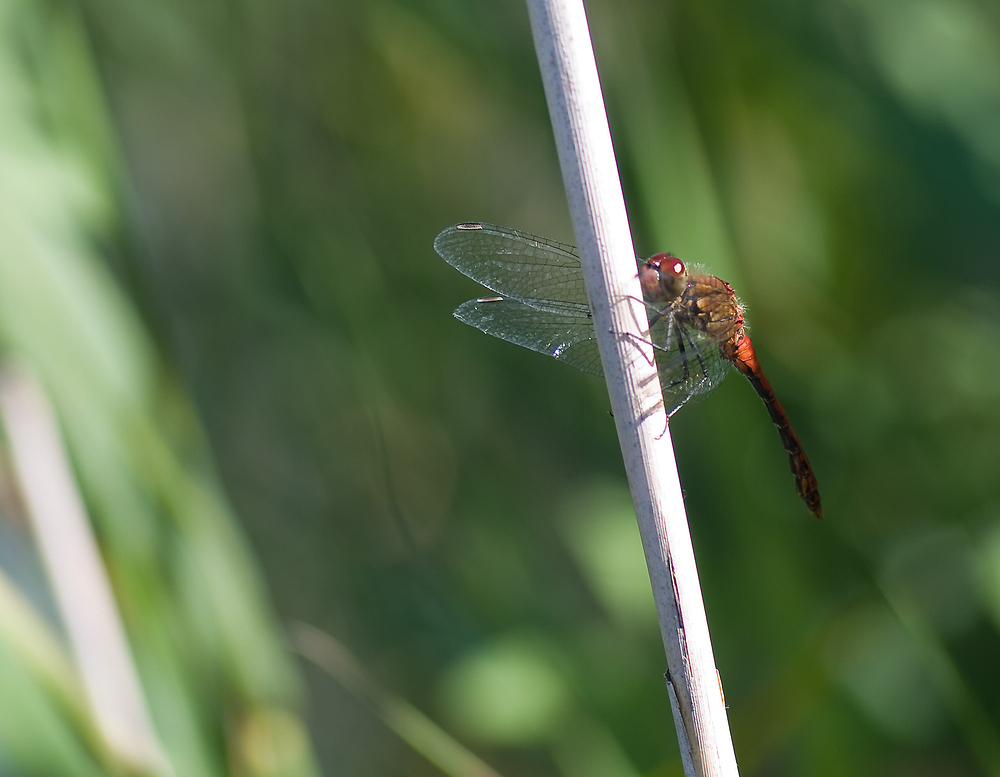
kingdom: Animalia
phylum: Arthropoda
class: Insecta
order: Odonata
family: Libellulidae
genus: Sympetrum
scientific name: Sympetrum sanguineum
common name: Ruddy darter
